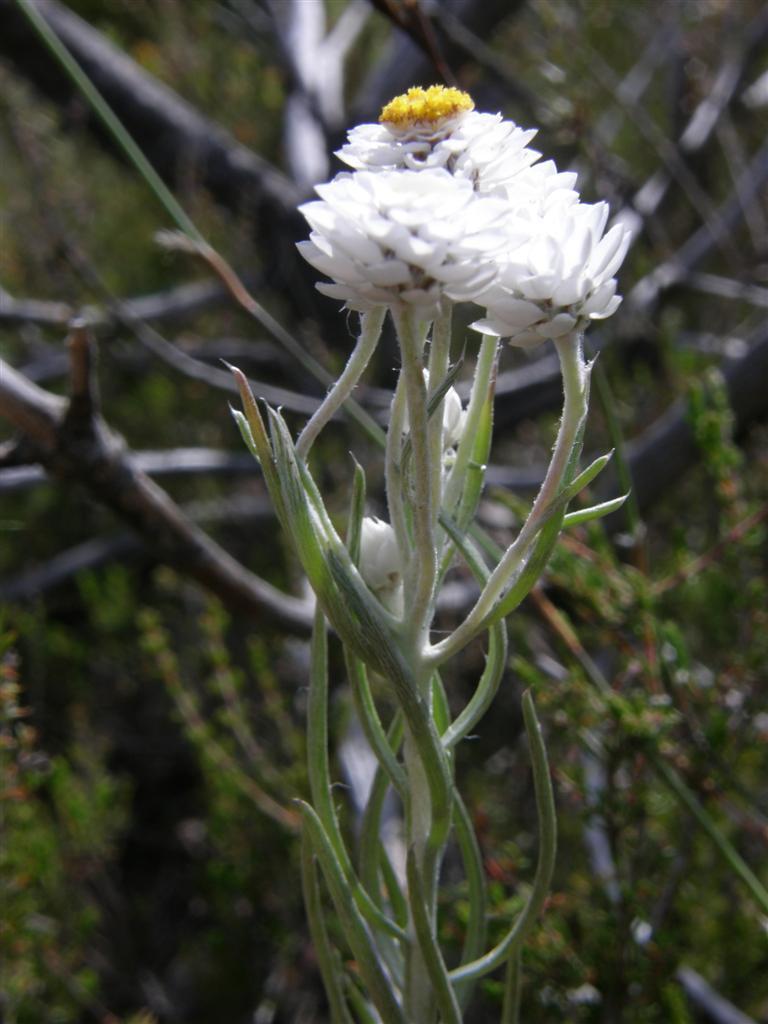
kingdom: Plantae
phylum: Tracheophyta
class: Magnoliopsida
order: Asterales
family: Asteraceae
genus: Helichrysum
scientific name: Helichrysum felinum
